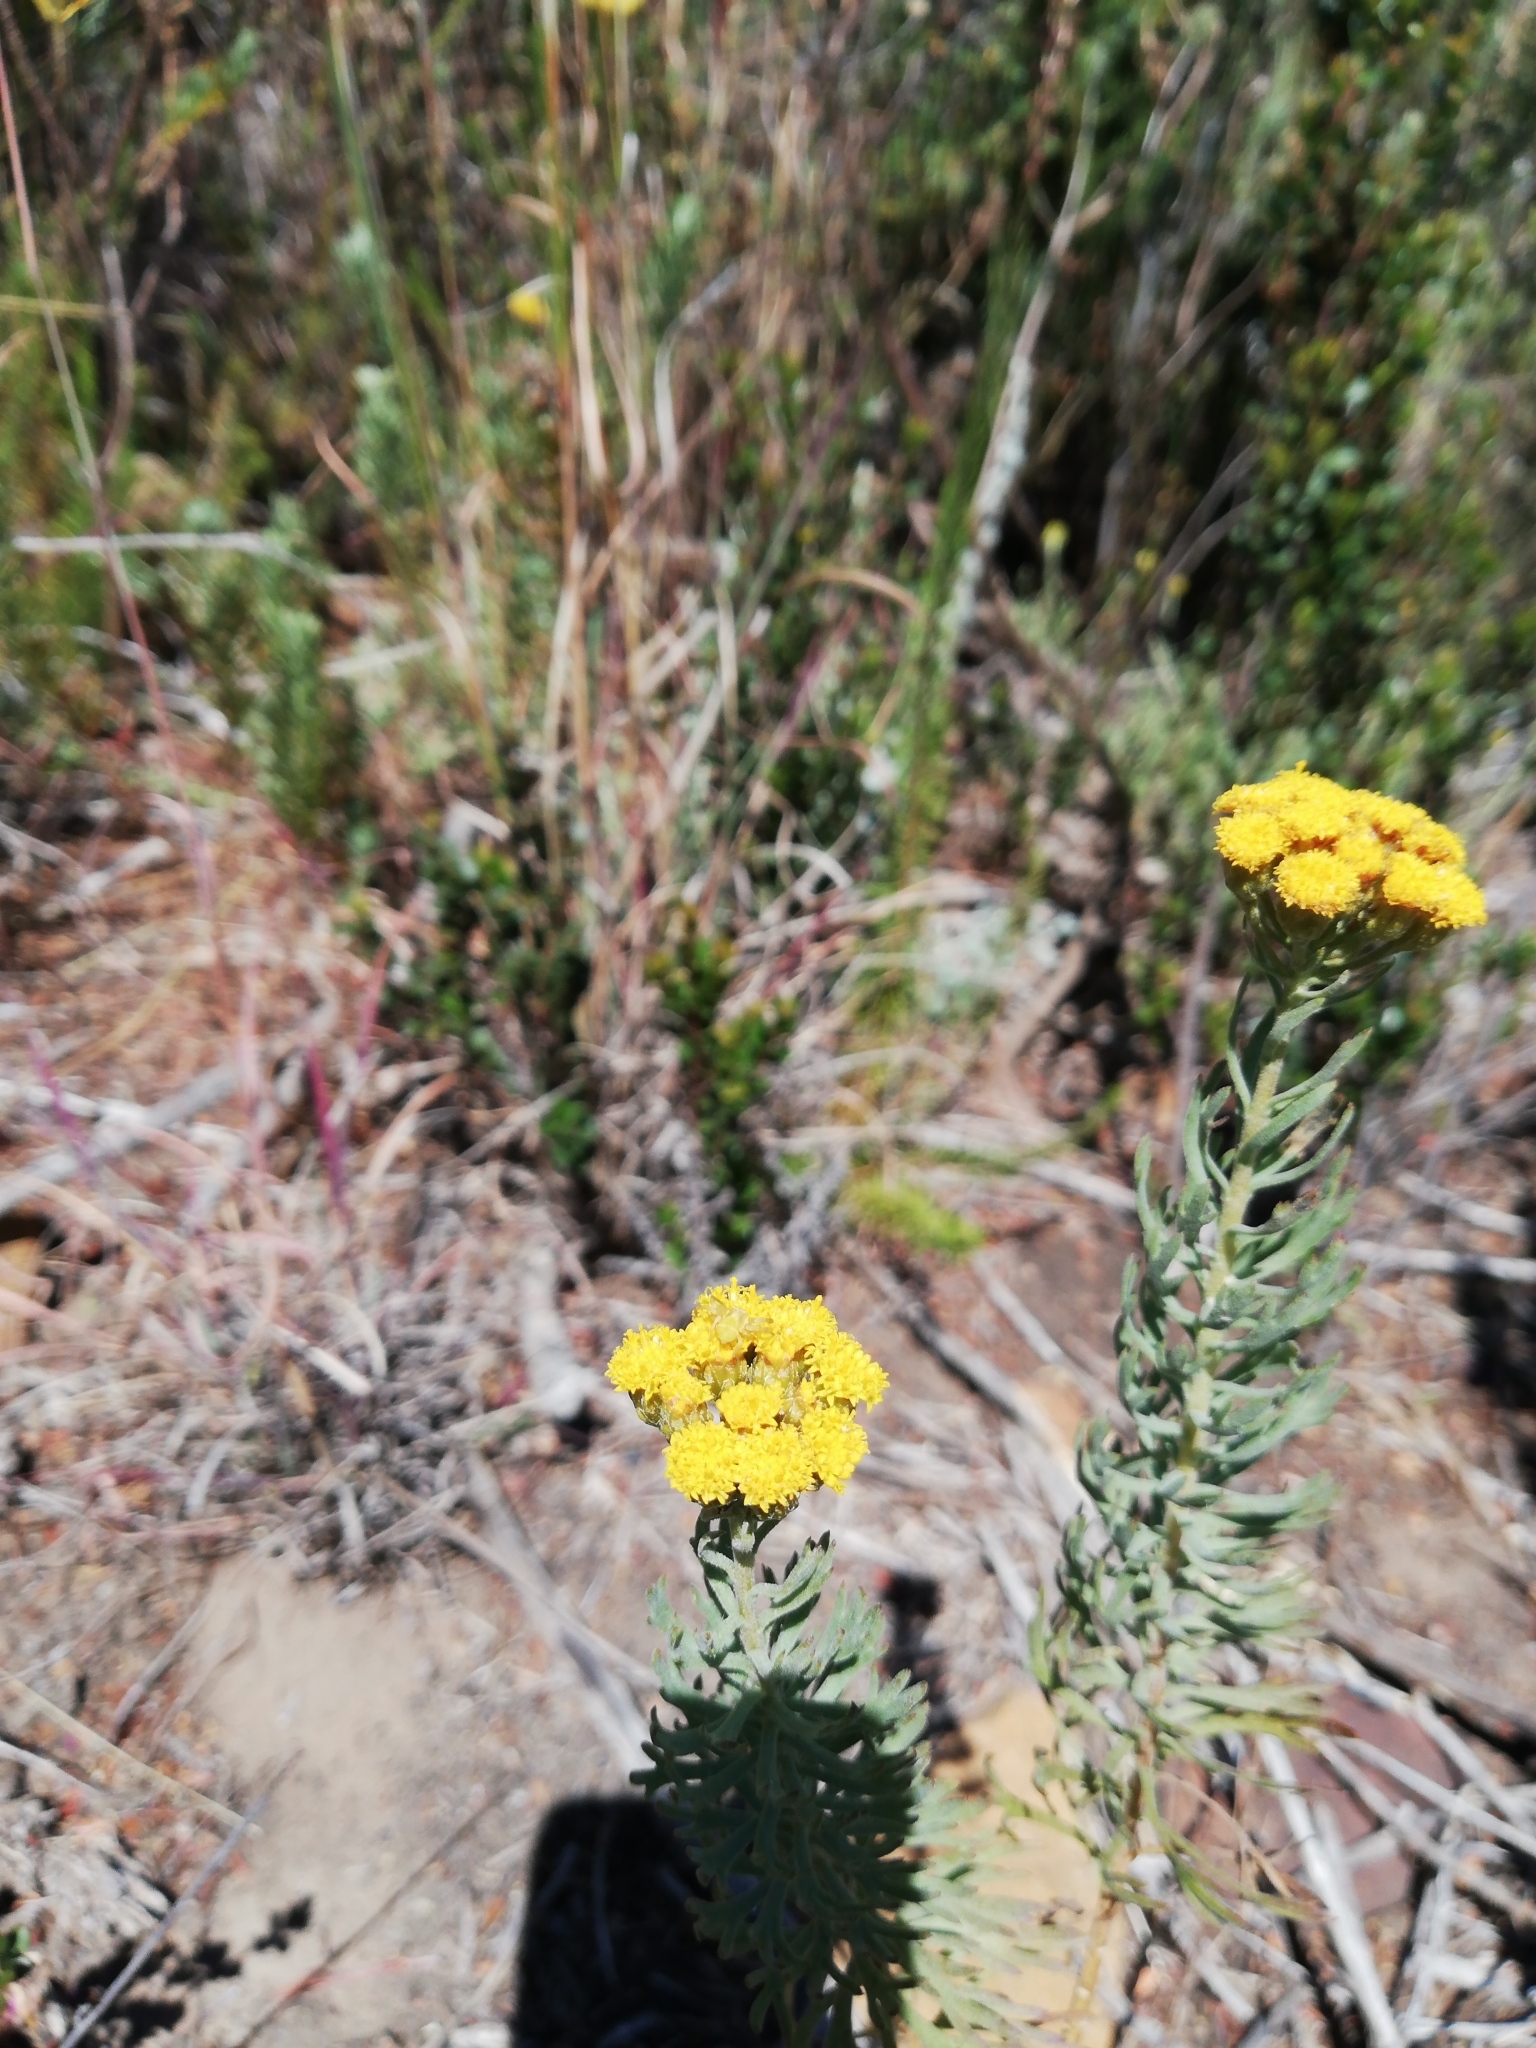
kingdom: Plantae
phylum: Tracheophyta
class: Magnoliopsida
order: Asterales
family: Asteraceae
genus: Athanasia
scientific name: Athanasia trifurcata
